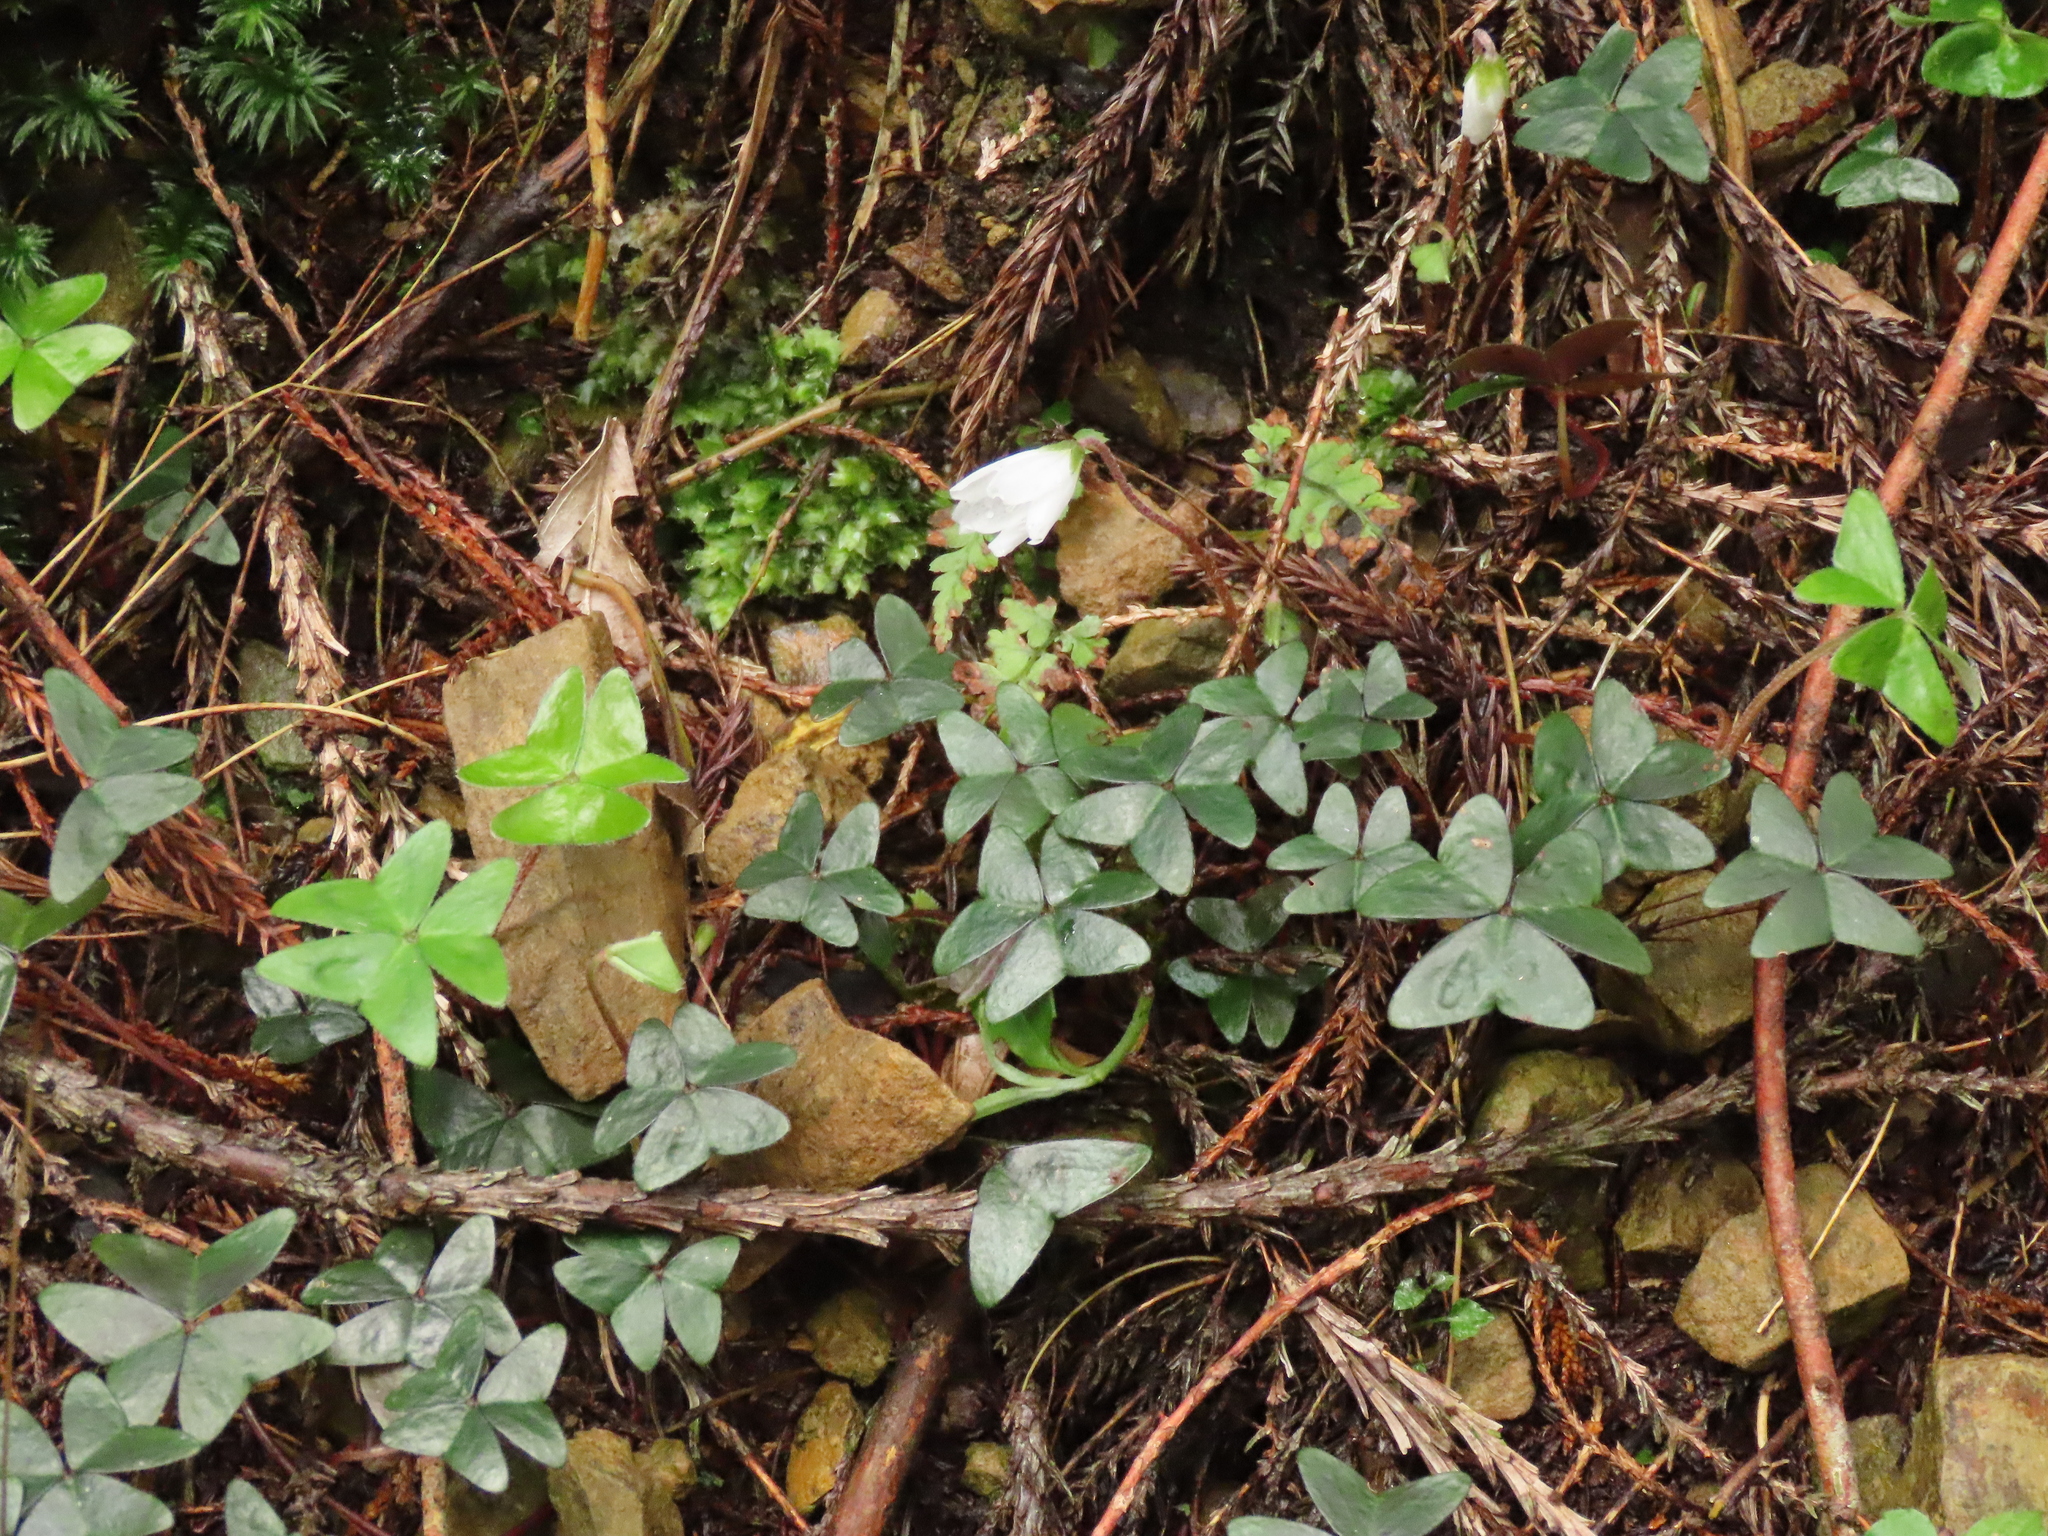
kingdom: Plantae
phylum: Tracheophyta
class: Magnoliopsida
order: Oxalidales
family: Oxalidaceae
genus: Oxalis
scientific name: Oxalis griffithii
